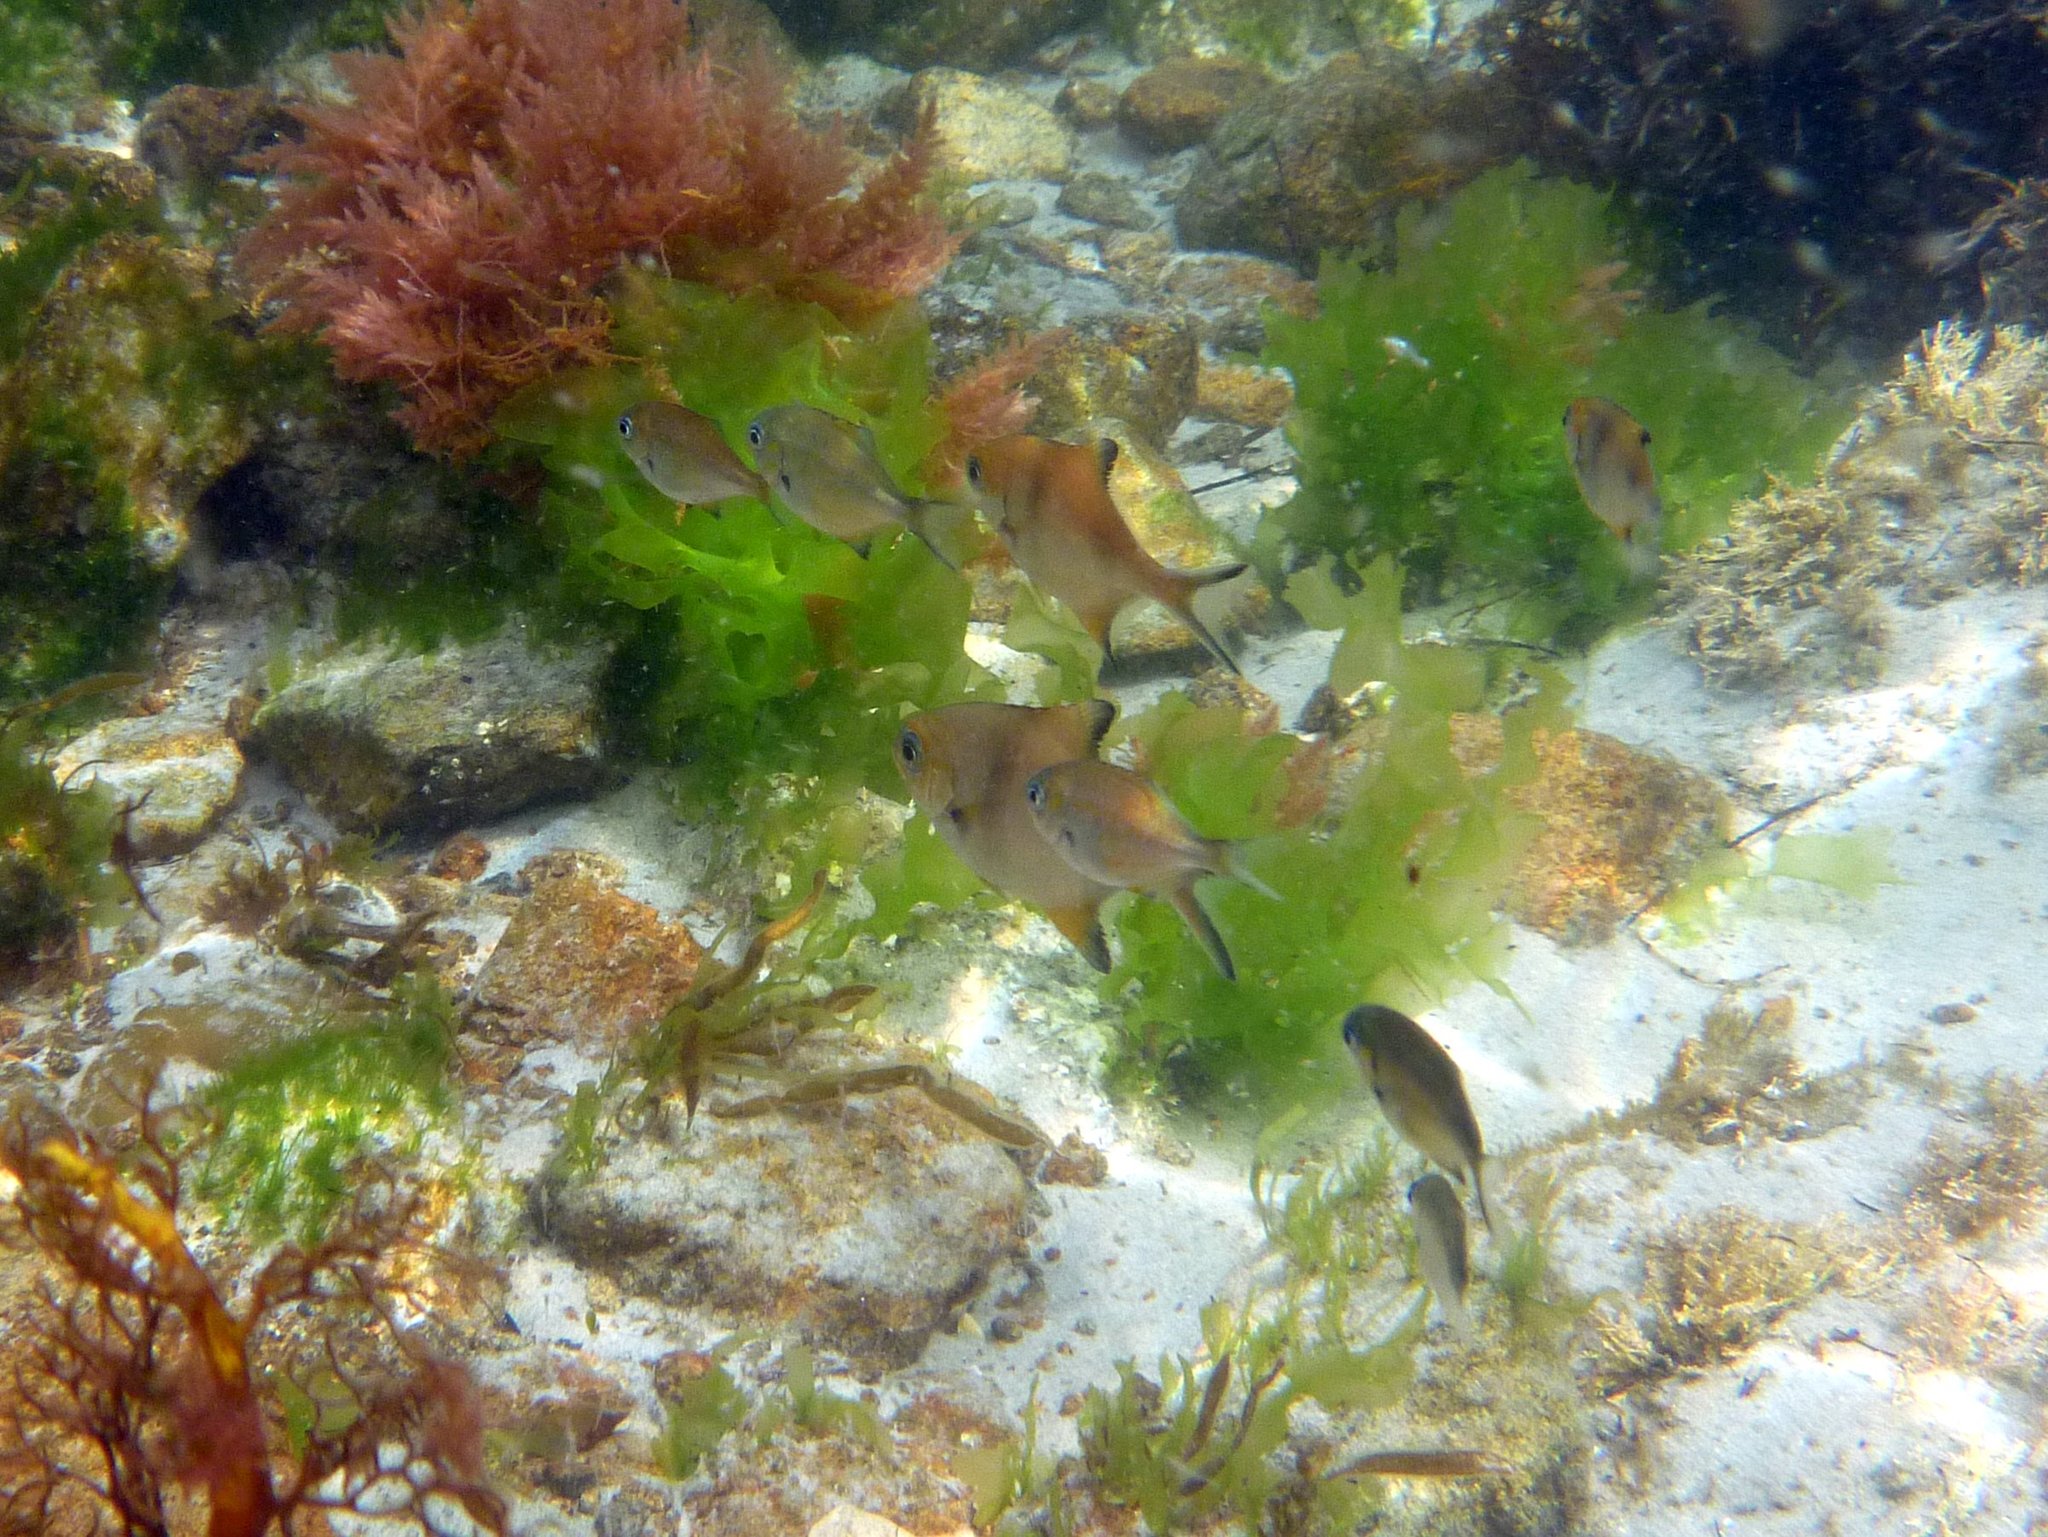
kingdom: Animalia
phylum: Chordata
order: Perciformes
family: Kyphosidae
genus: Scorpis
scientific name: Scorpis aequipinnis
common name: Sea sweep
